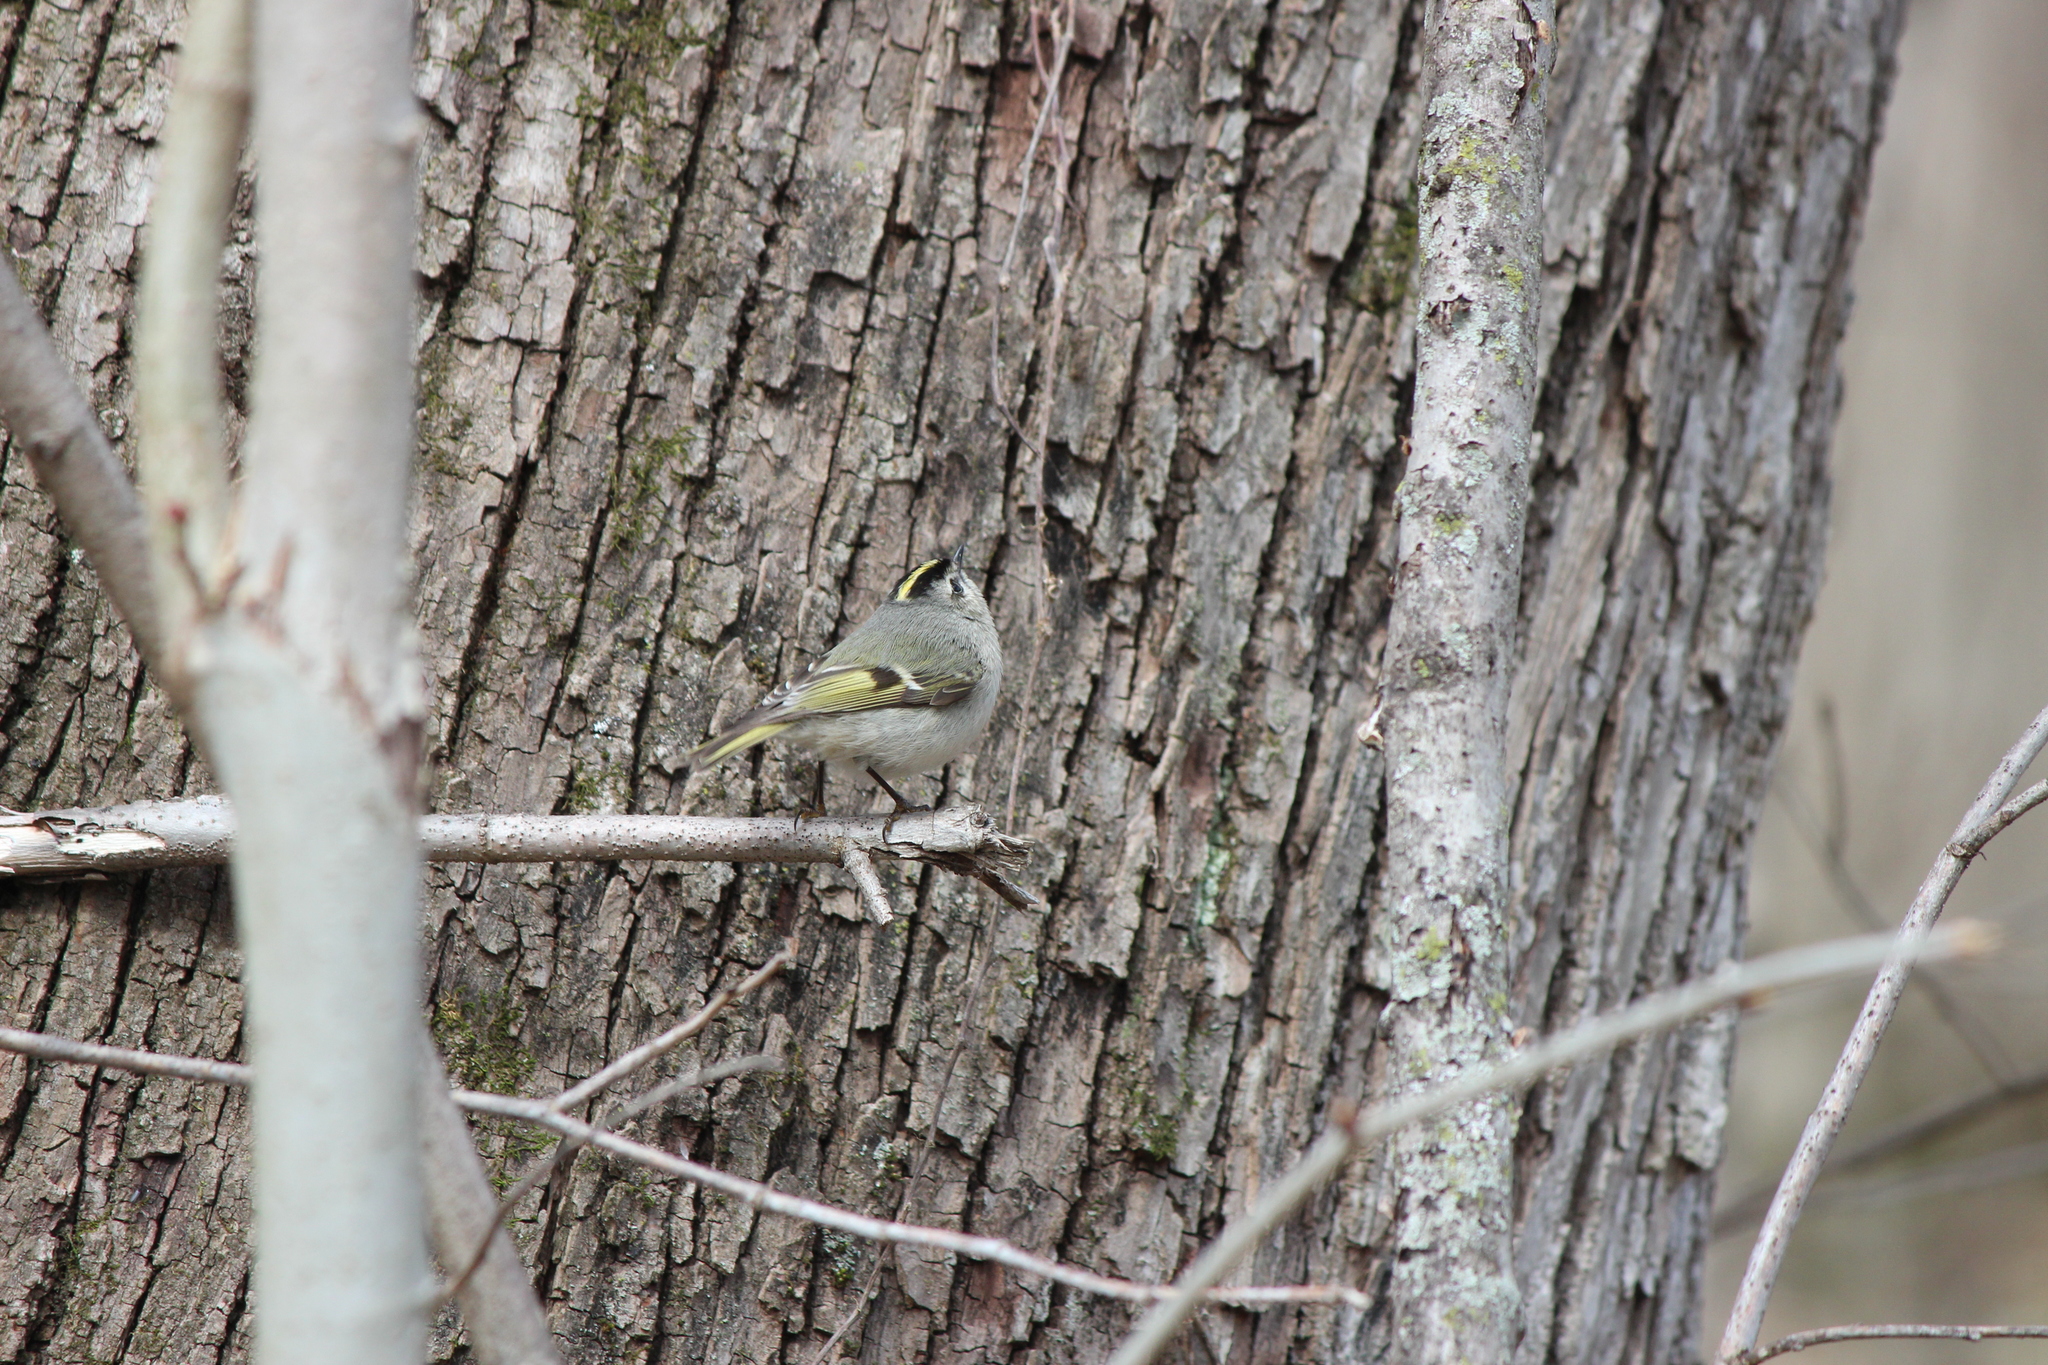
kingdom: Animalia
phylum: Chordata
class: Aves
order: Passeriformes
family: Regulidae
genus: Regulus
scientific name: Regulus satrapa
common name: Golden-crowned kinglet
